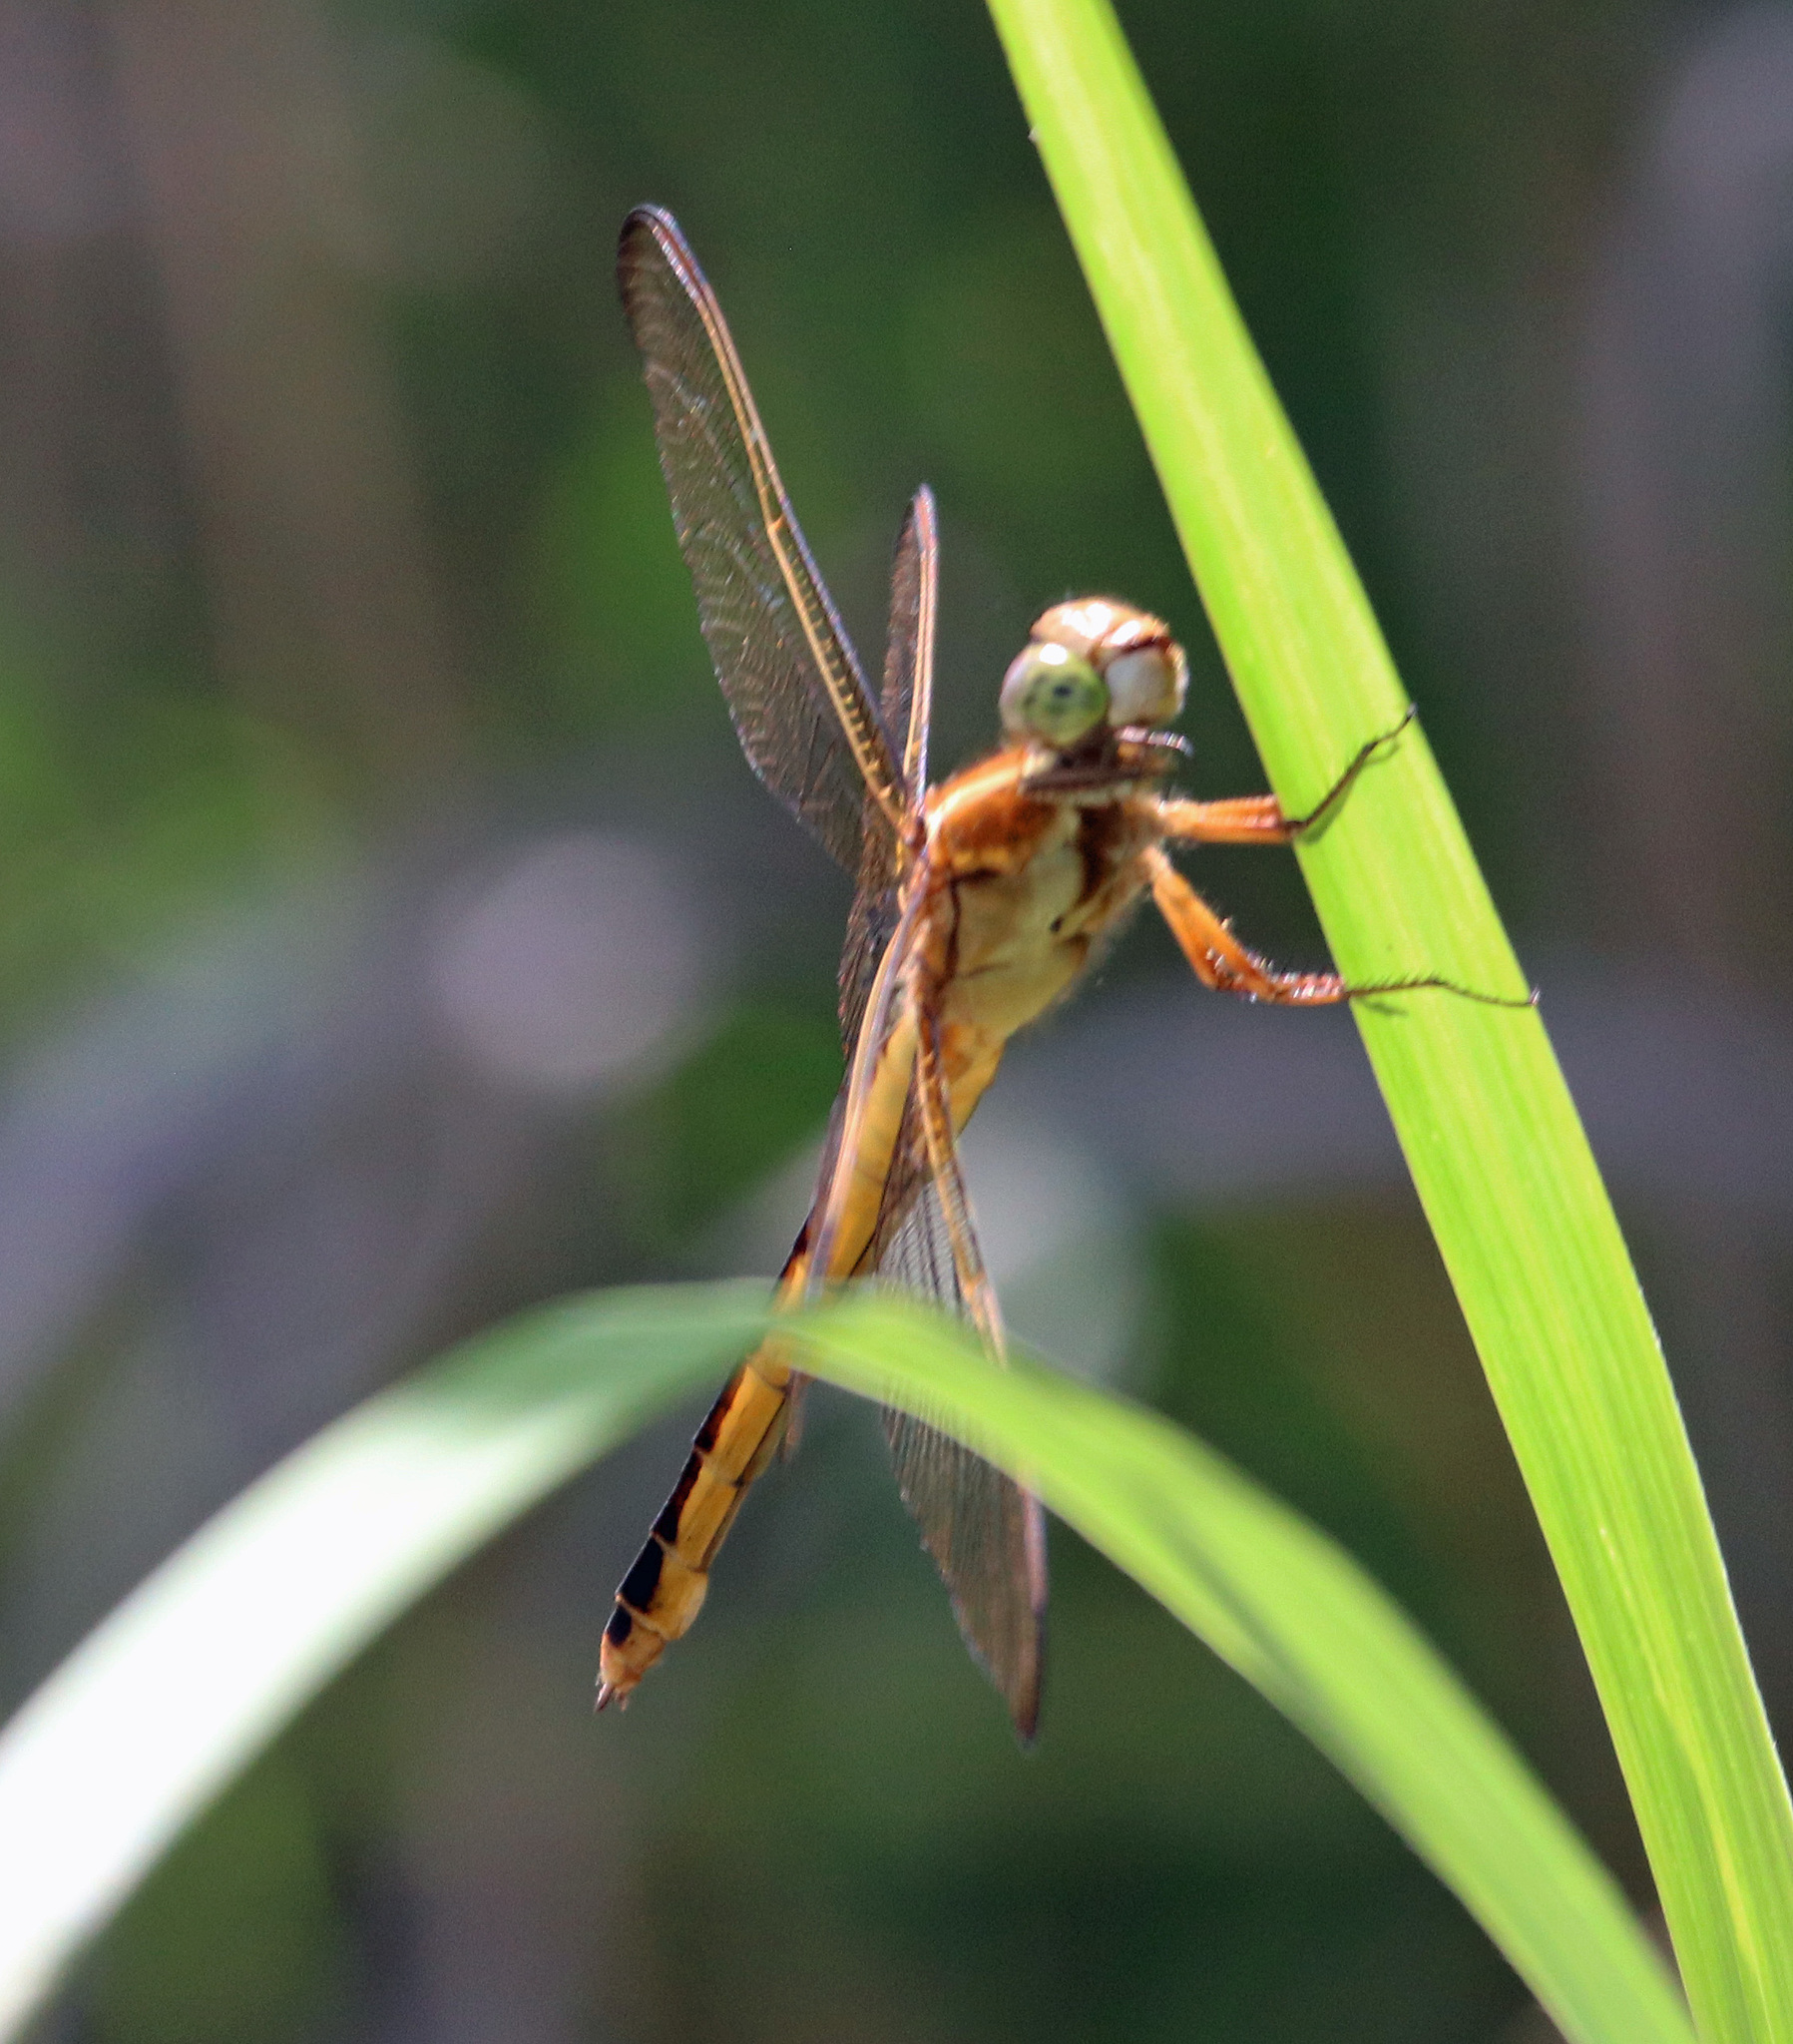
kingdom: Animalia
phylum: Arthropoda
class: Insecta
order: Odonata
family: Libellulidae
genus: Libellula
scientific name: Libellula needhami
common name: Needham's skimmer
